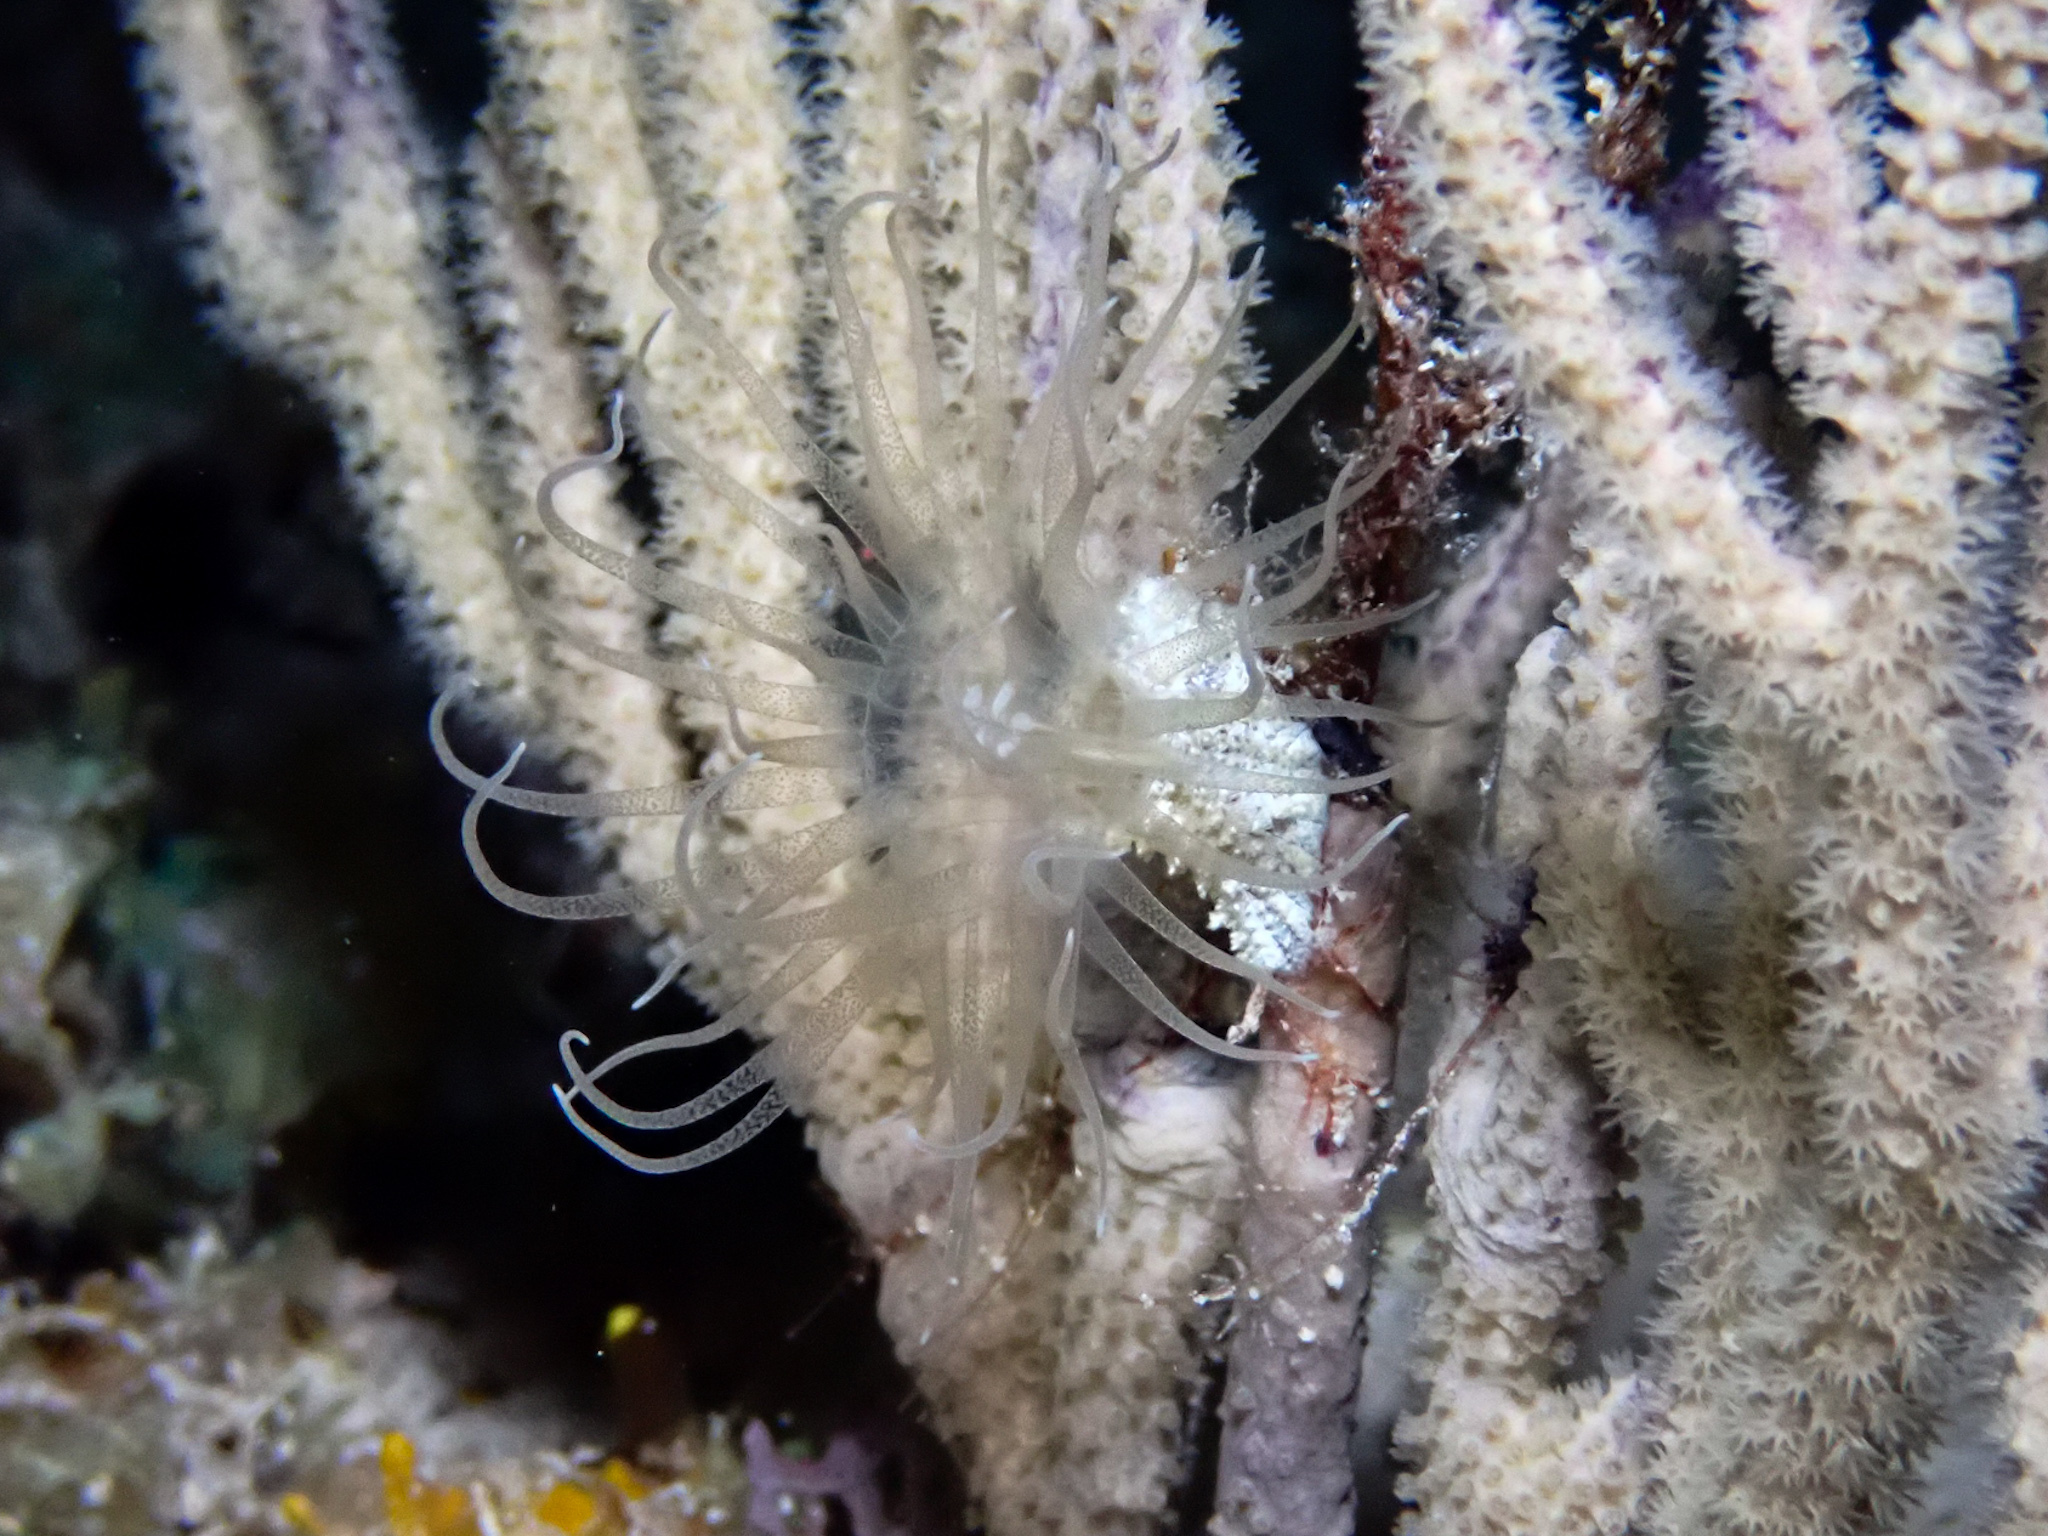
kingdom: Animalia
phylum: Cnidaria
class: Anthozoa
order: Actiniaria
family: Boloceroididae
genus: Bunodeopsis
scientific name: Bunodeopsis globulifera
